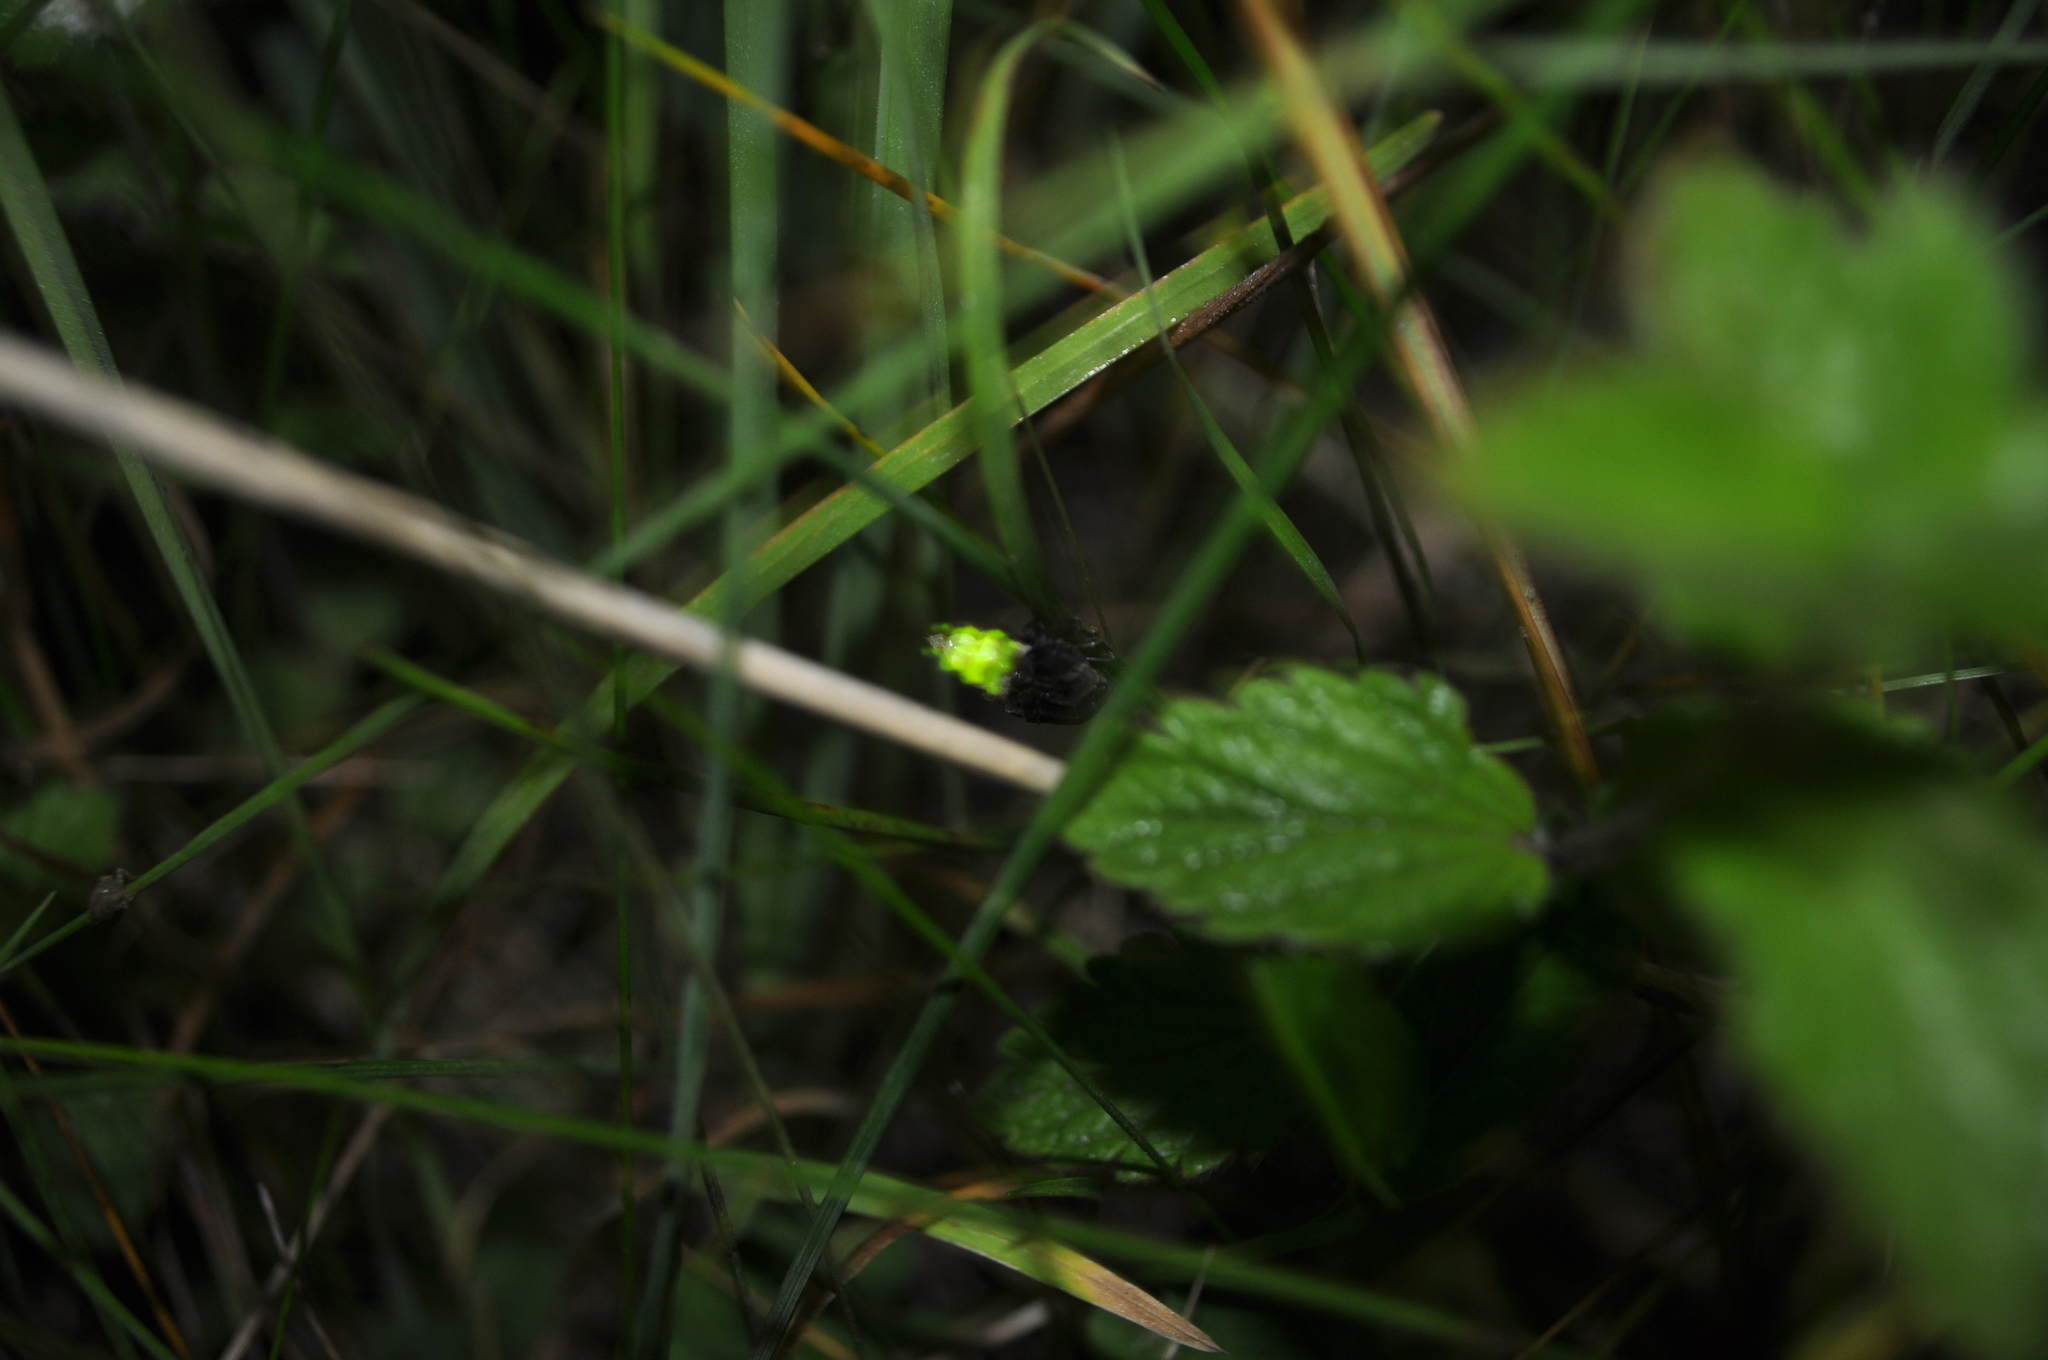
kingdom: Animalia
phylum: Arthropoda
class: Insecta
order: Coleoptera
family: Lampyridae
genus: Lampyris
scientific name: Lampyris noctiluca
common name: Glow-worm
